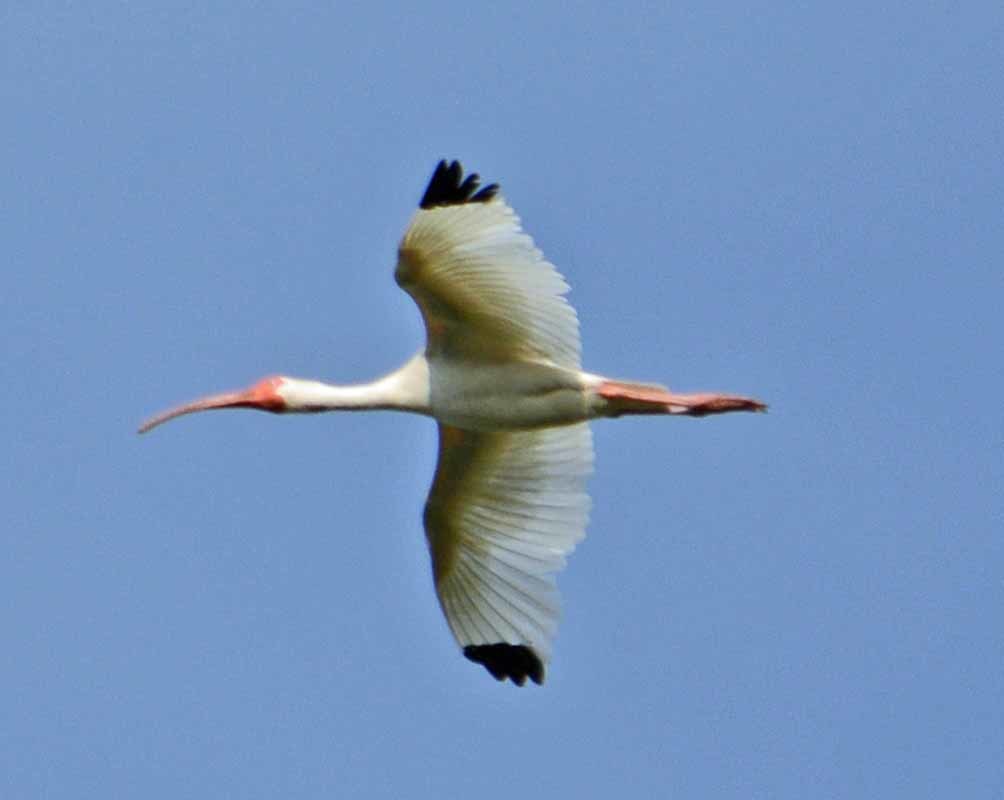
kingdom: Animalia
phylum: Chordata
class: Aves
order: Pelecaniformes
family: Threskiornithidae
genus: Eudocimus
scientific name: Eudocimus albus
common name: White ibis
